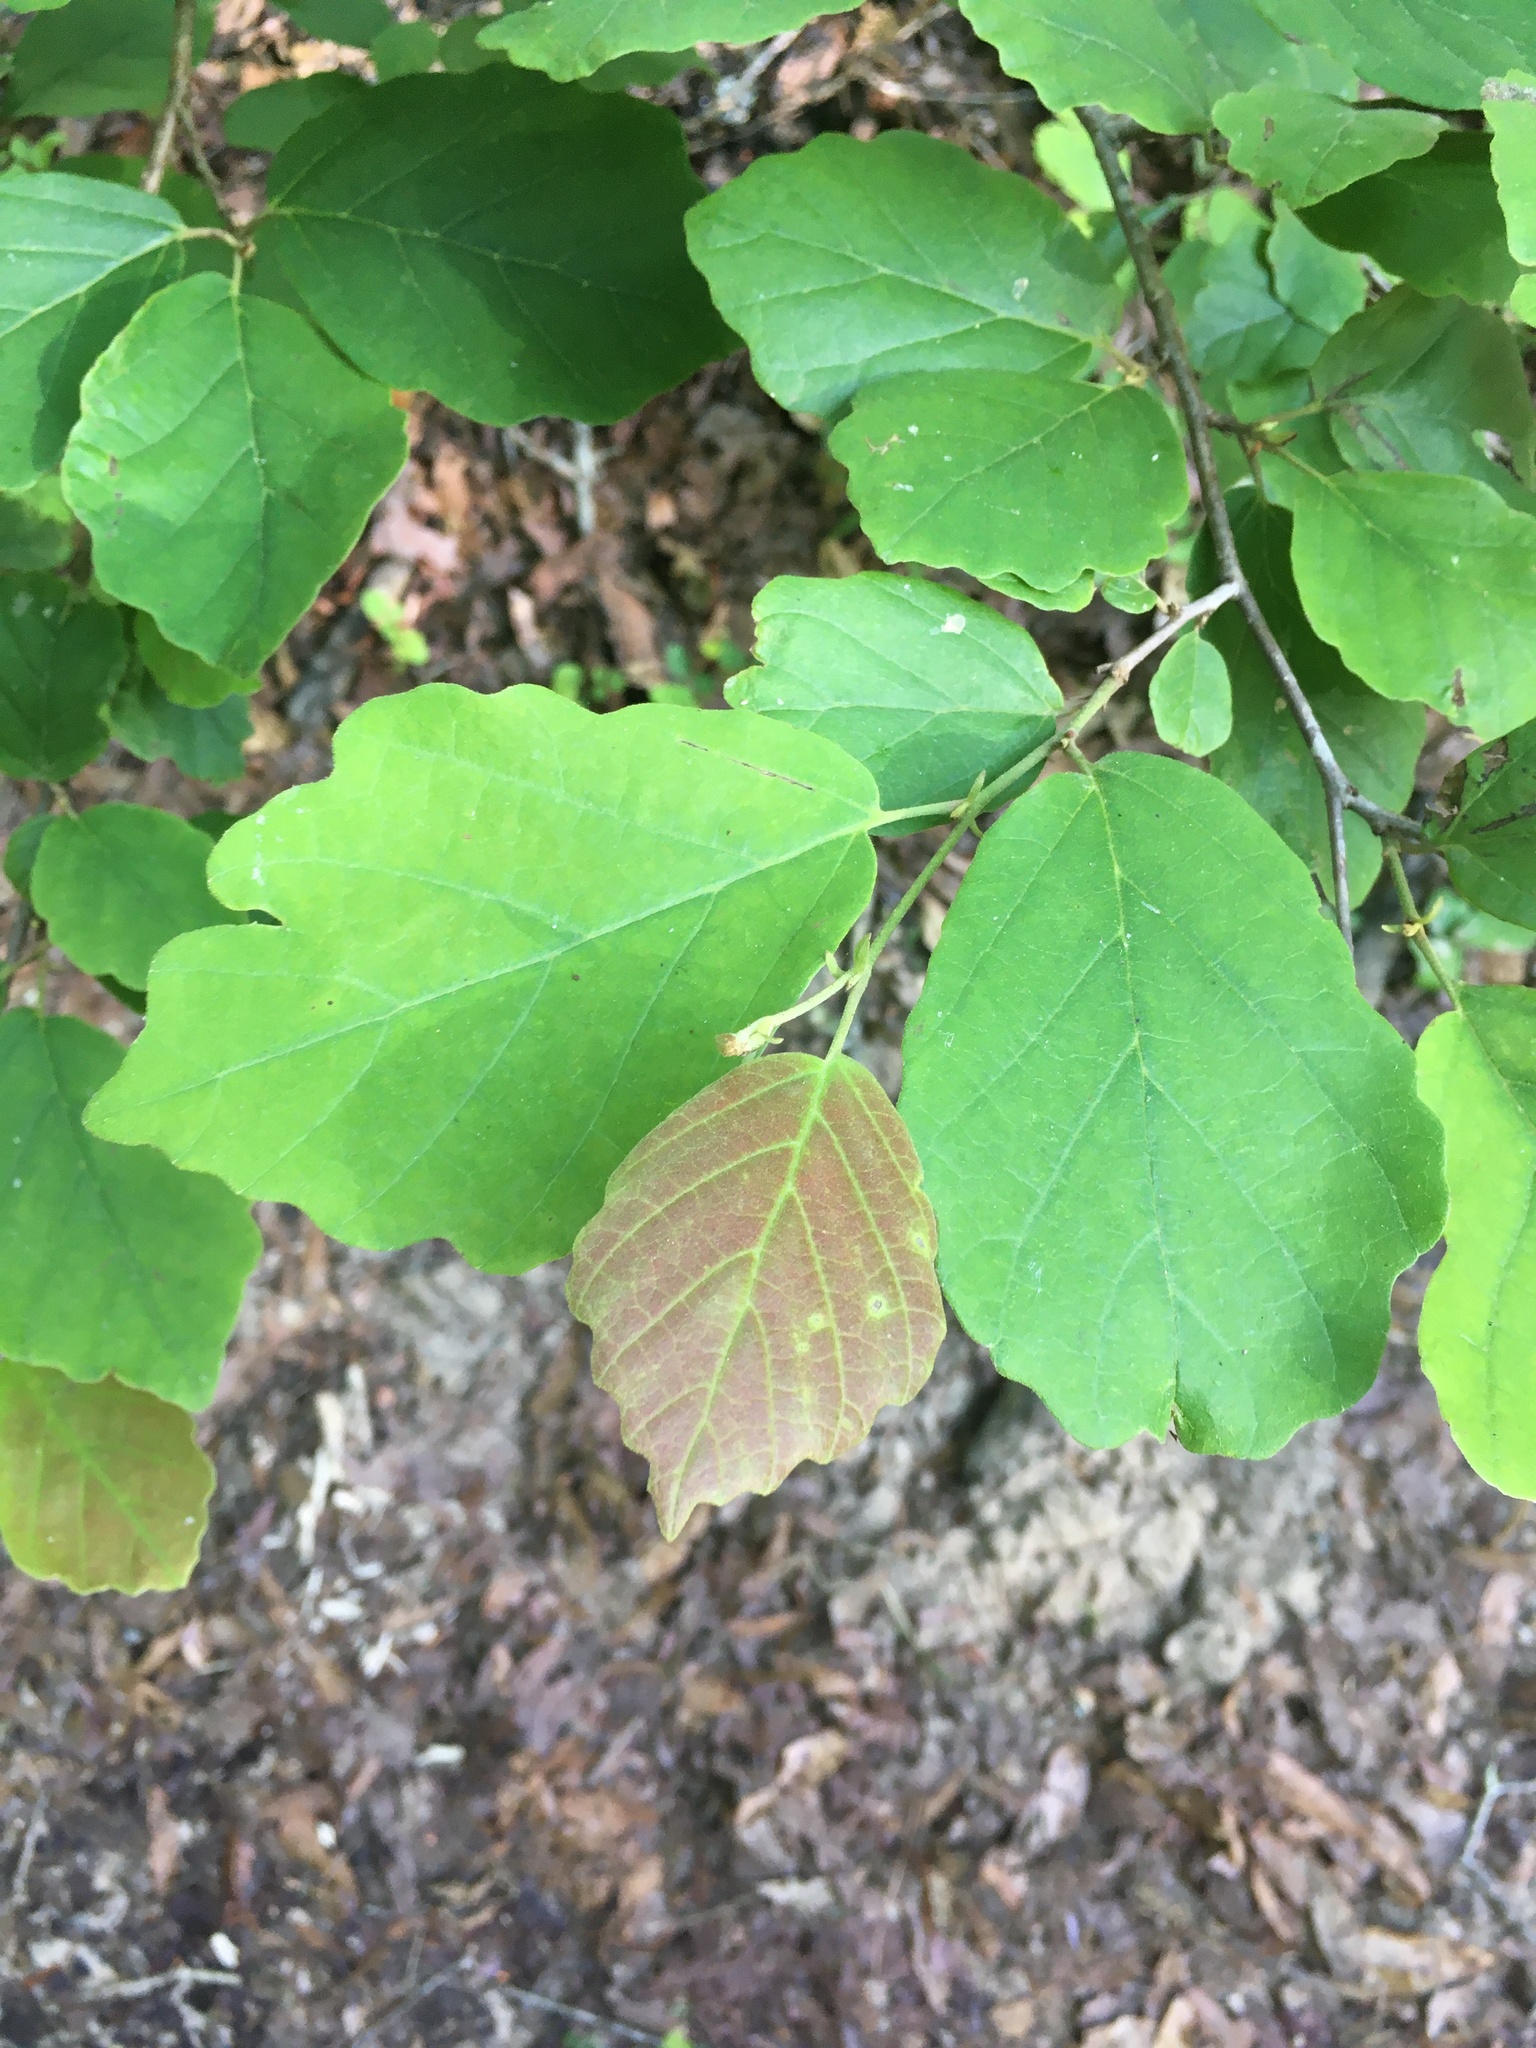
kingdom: Plantae
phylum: Tracheophyta
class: Magnoliopsida
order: Saxifragales
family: Hamamelidaceae
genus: Hamamelis
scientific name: Hamamelis virginiana
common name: Witch-hazel
